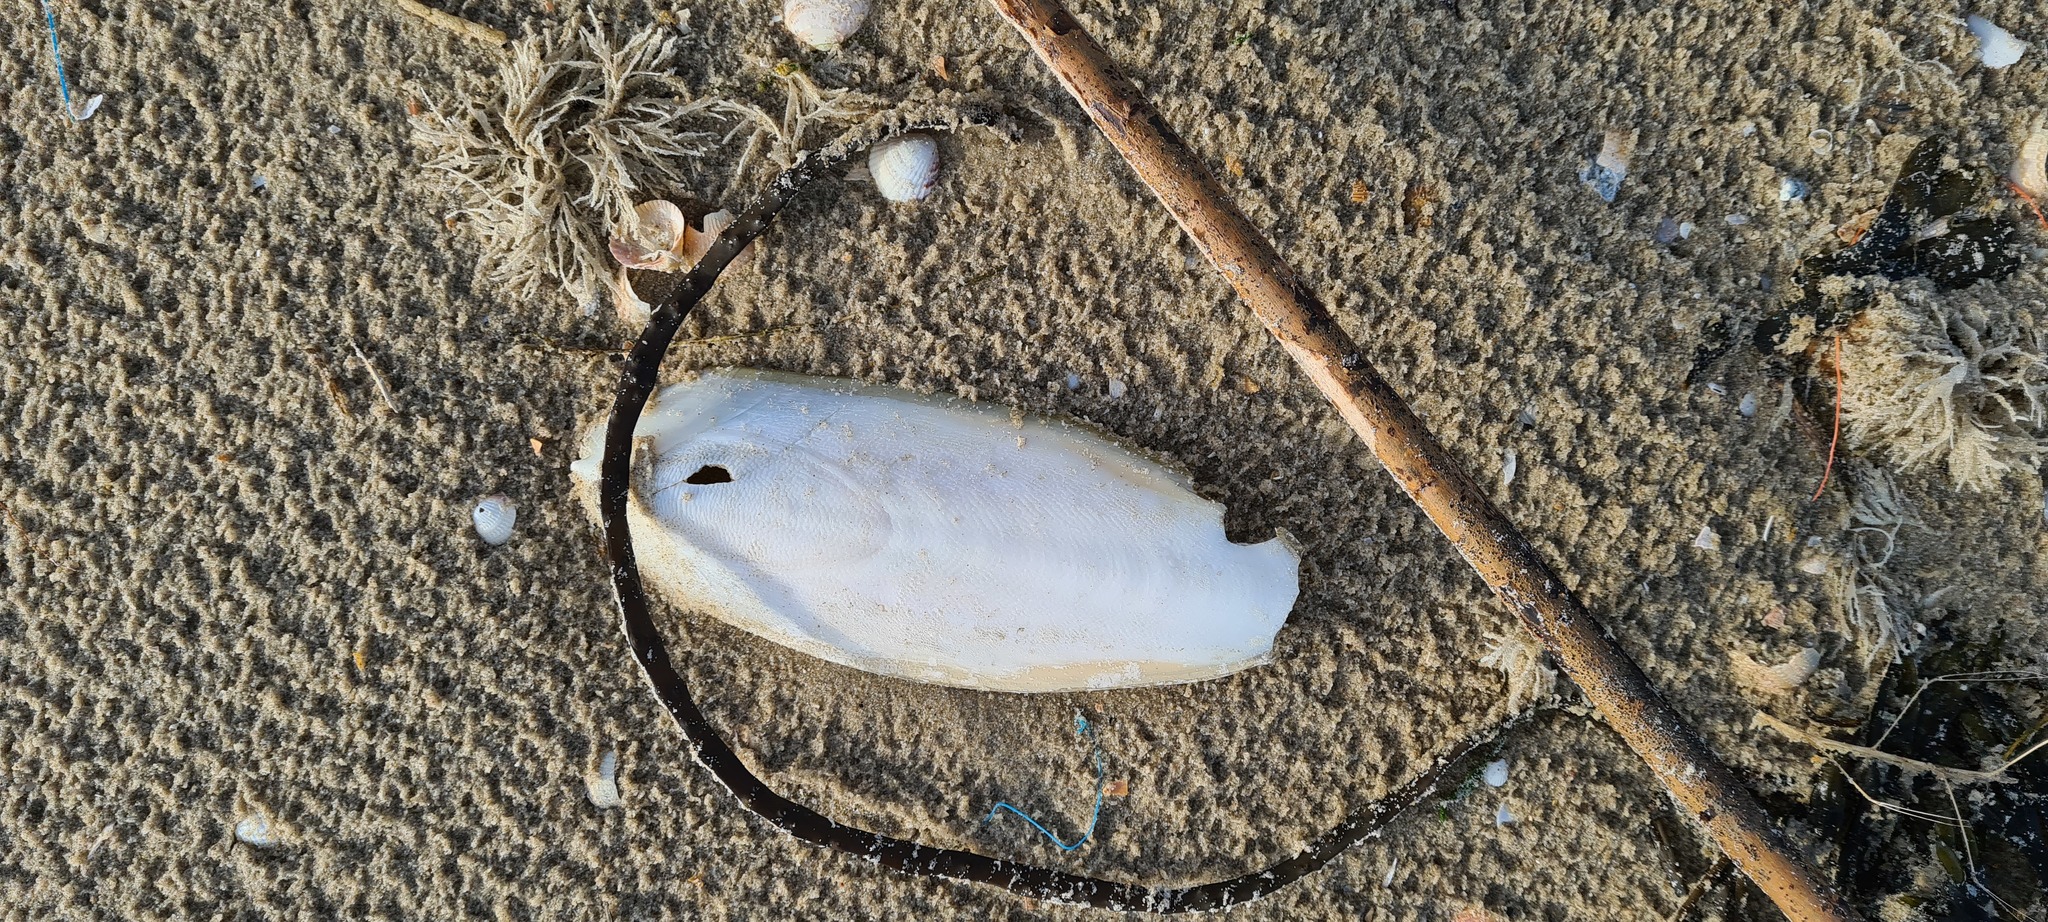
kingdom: Animalia
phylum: Mollusca
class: Cephalopoda
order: Sepiida
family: Sepiidae
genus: Sepia
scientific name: Sepia officinalis
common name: Common cuttlefish
